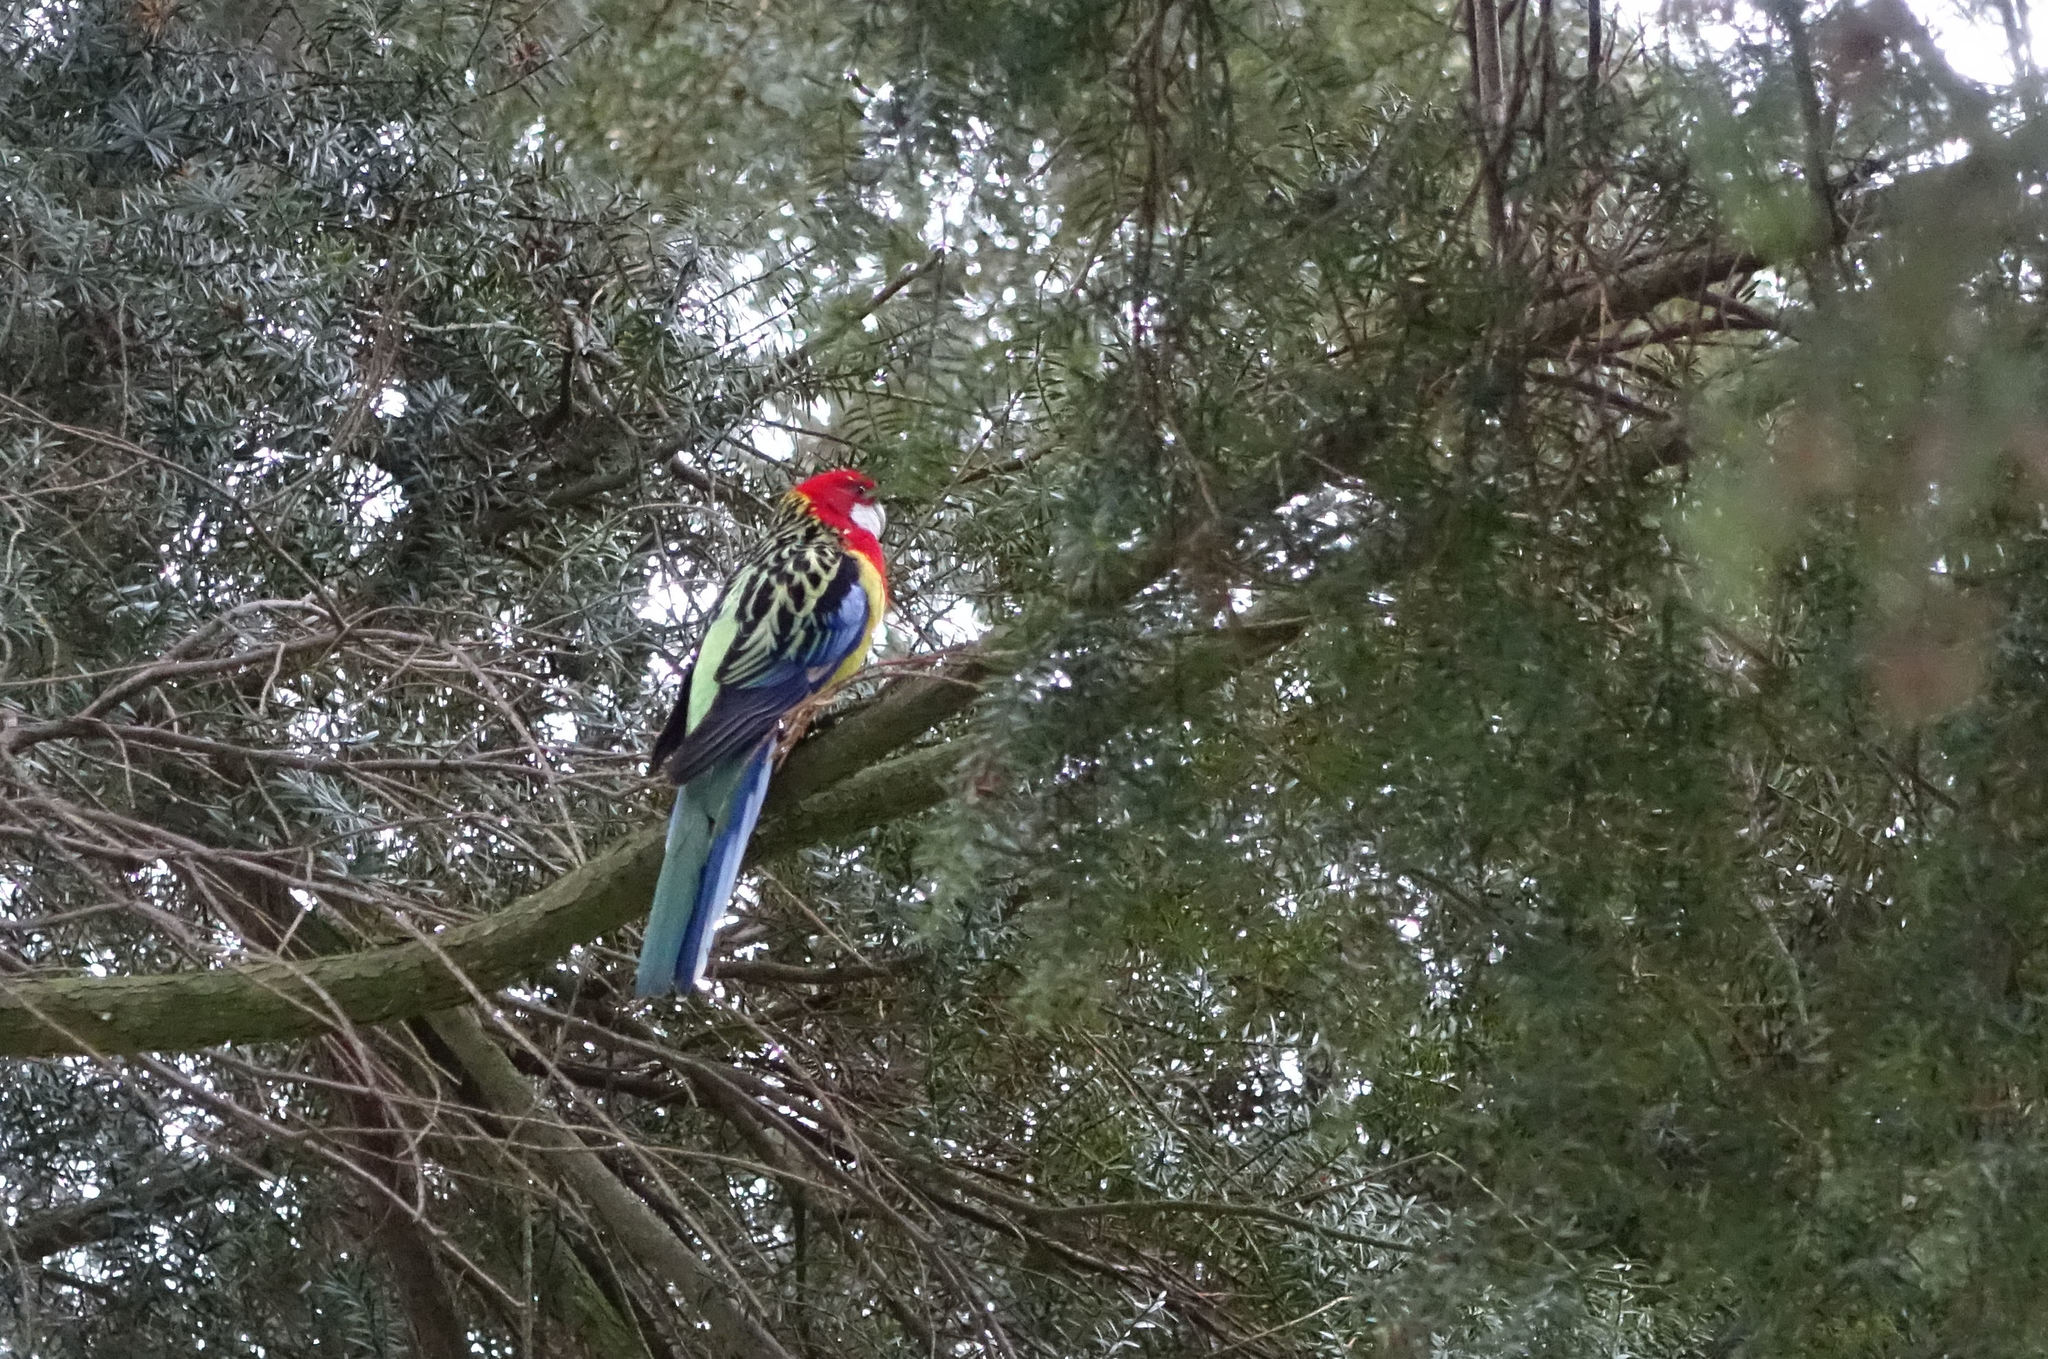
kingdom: Animalia
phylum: Chordata
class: Aves
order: Psittaciformes
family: Psittacidae
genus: Platycercus
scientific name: Platycercus eximius
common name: Eastern rosella
